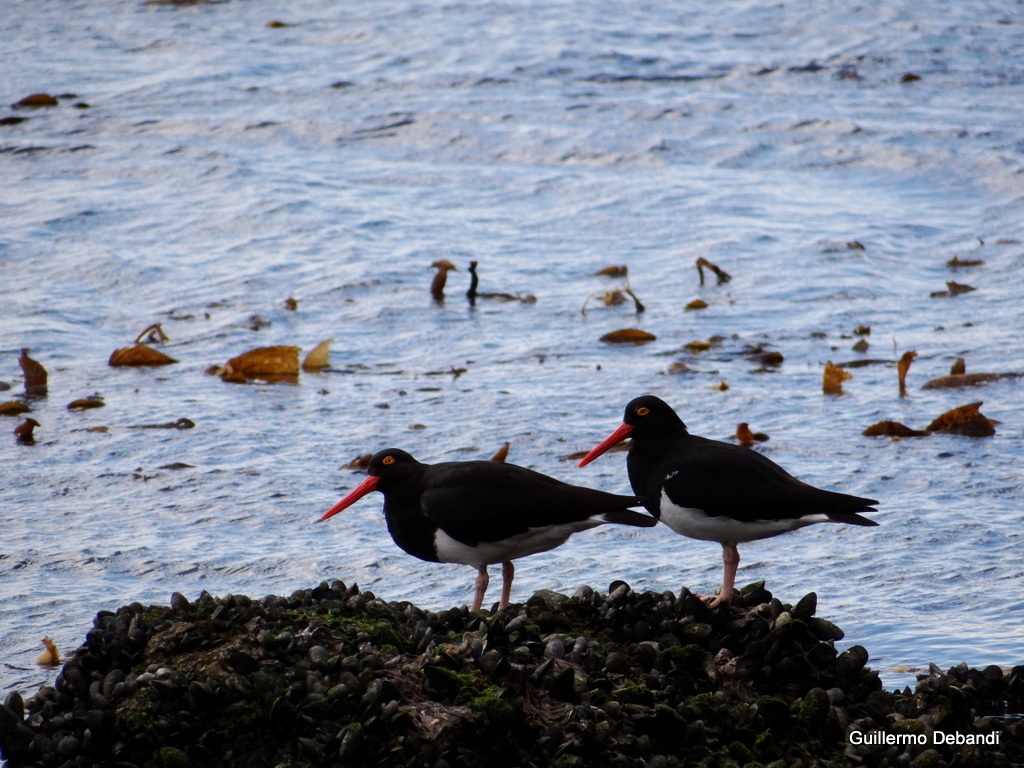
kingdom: Animalia
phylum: Chordata
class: Aves
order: Charadriiformes
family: Haematopodidae
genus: Haematopus
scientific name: Haematopus leucopodus
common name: Magellanic oystercatcher
